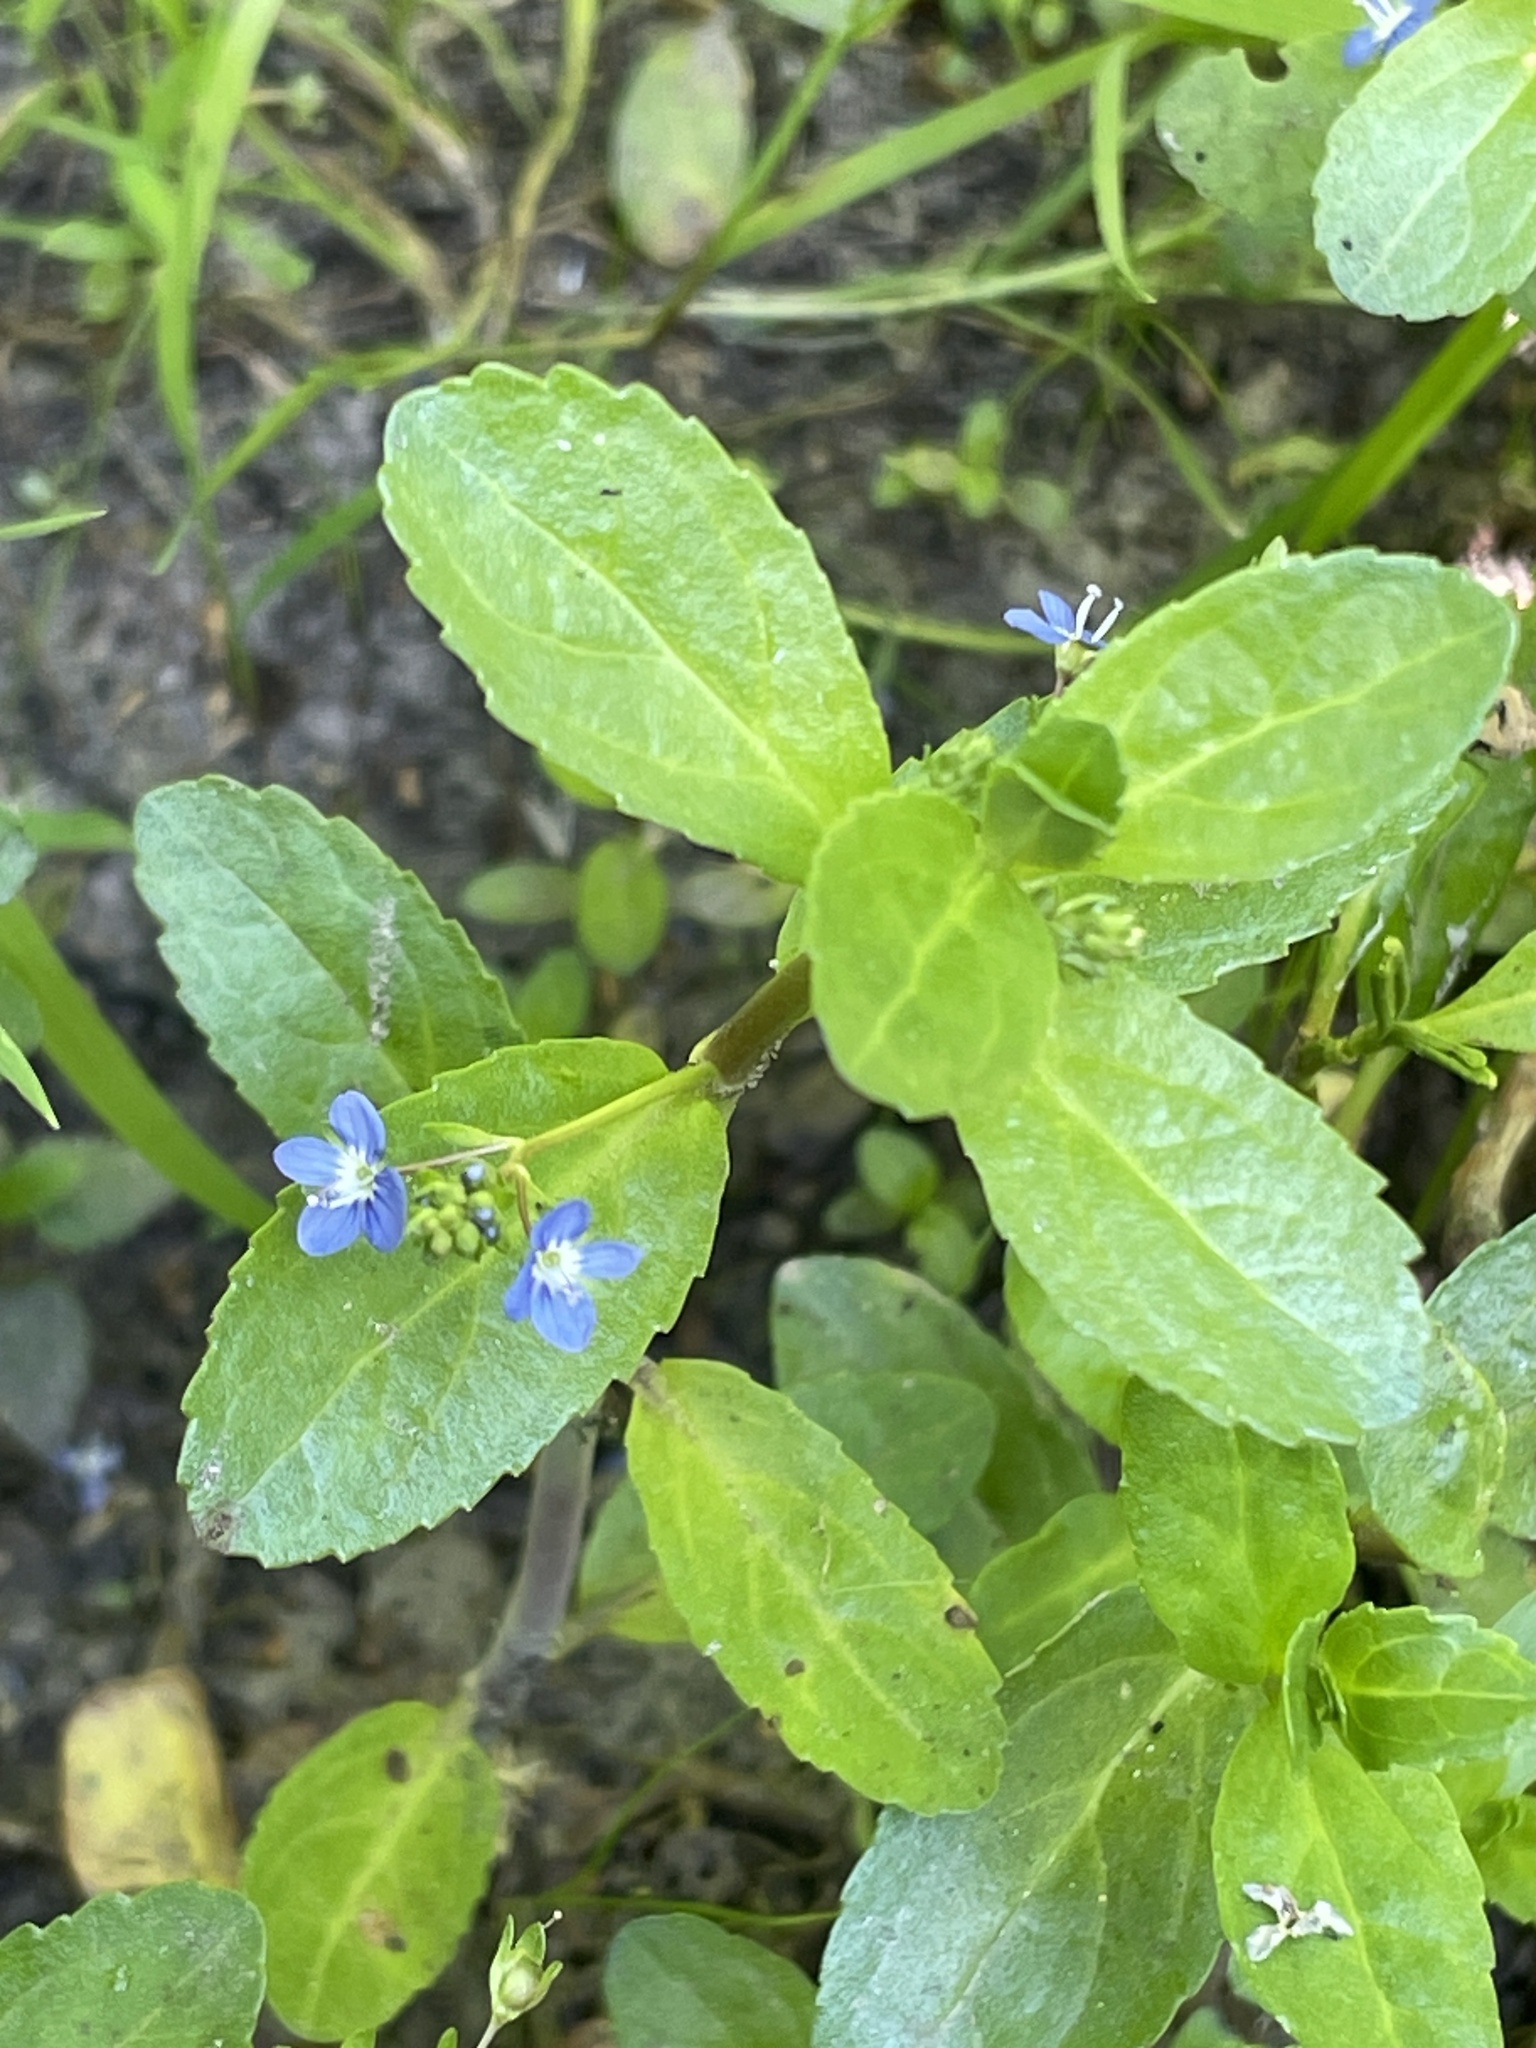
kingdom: Plantae
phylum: Tracheophyta
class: Magnoliopsida
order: Lamiales
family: Plantaginaceae
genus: Veronica
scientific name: Veronica beccabunga
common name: Brooklime
